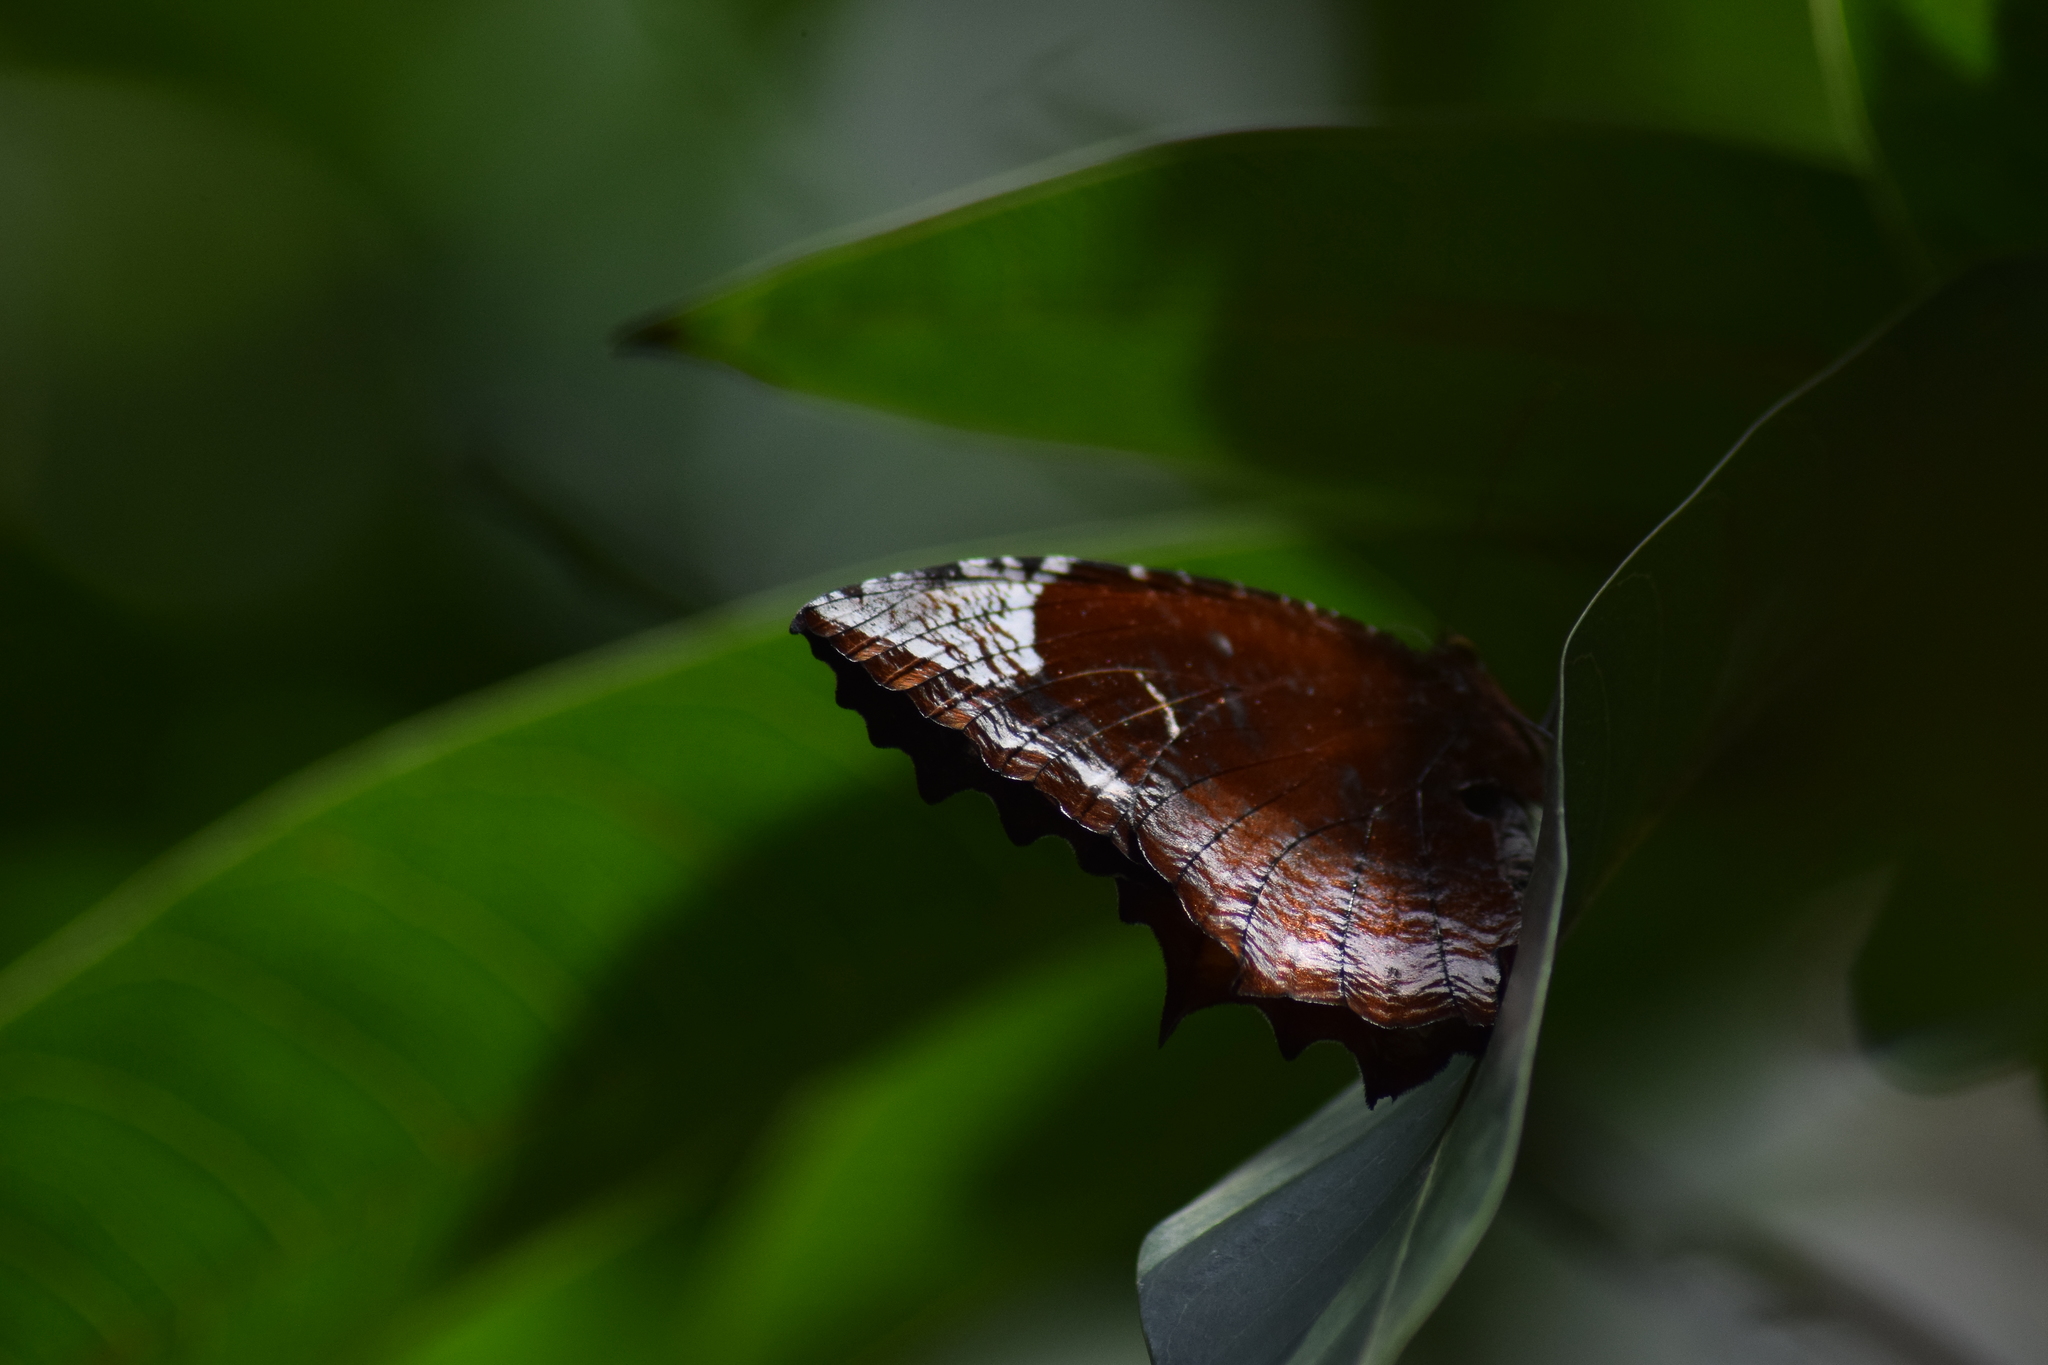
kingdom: Animalia
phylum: Arthropoda
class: Insecta
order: Lepidoptera
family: Nymphalidae
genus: Elymnias
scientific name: Elymnias caudata
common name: Tailed palmfly
